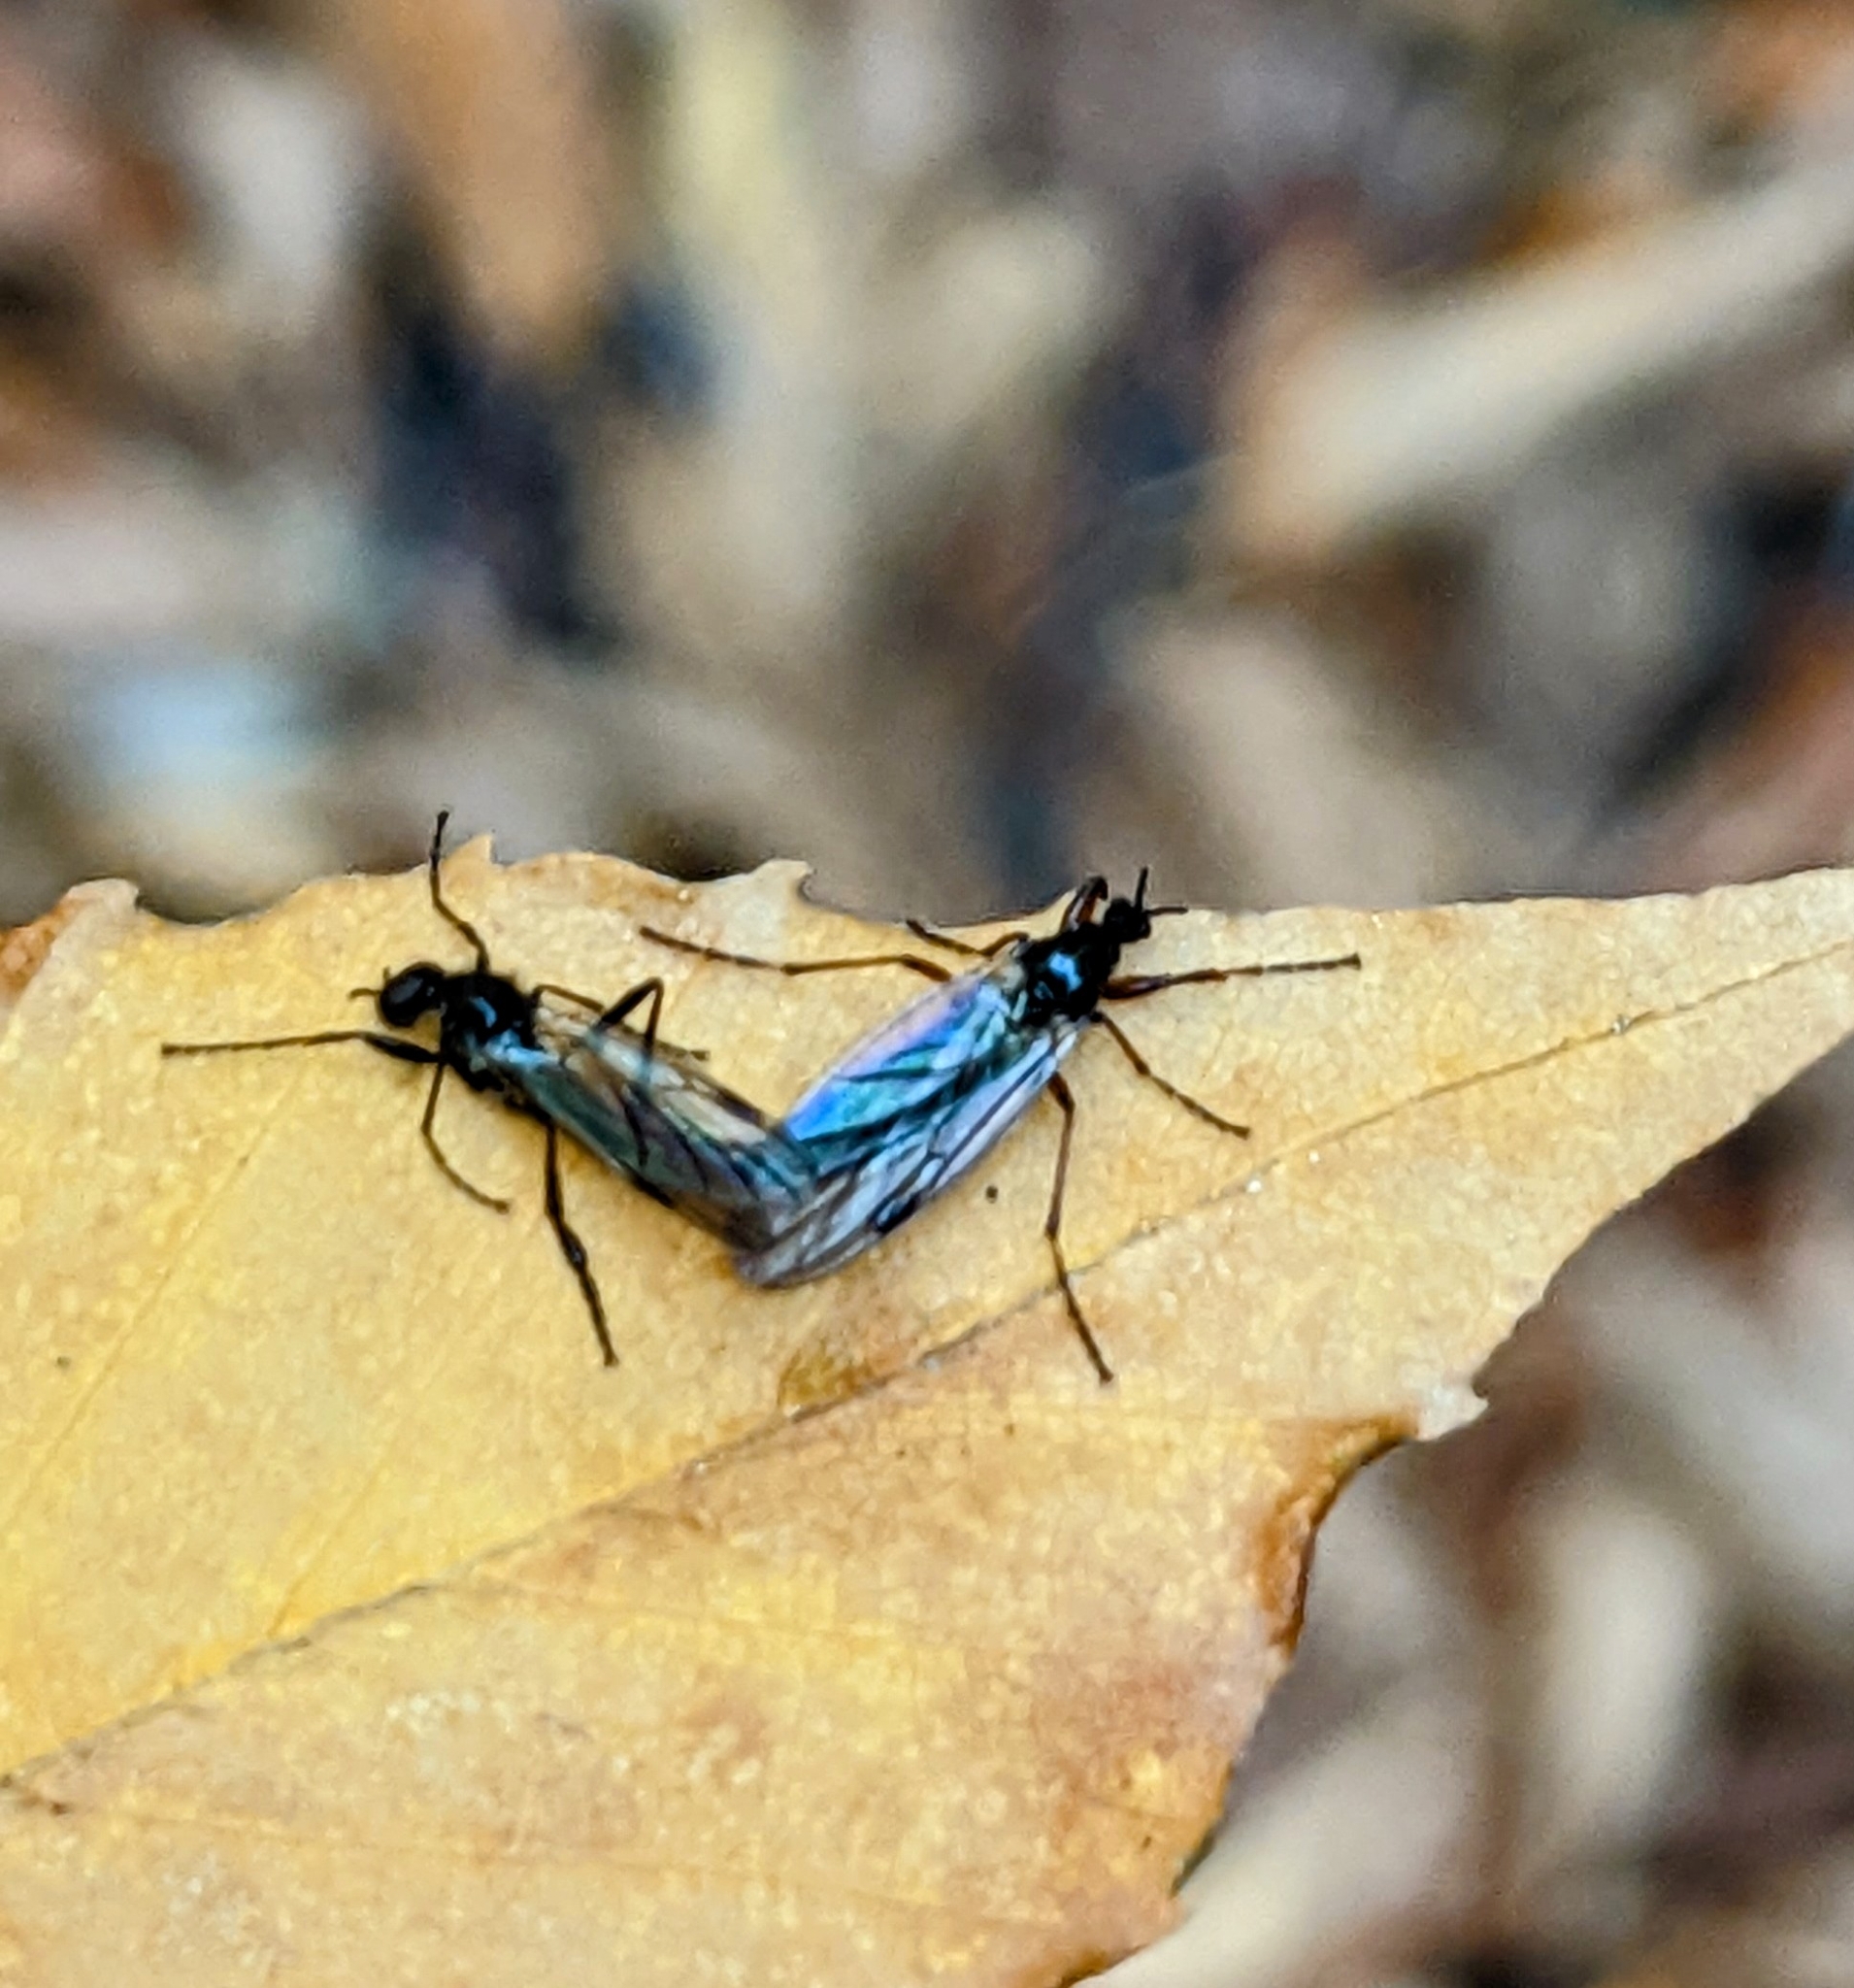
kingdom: Animalia
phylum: Arthropoda
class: Insecta
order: Diptera
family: Bibionidae
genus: Bibio
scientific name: Bibio slossonae
